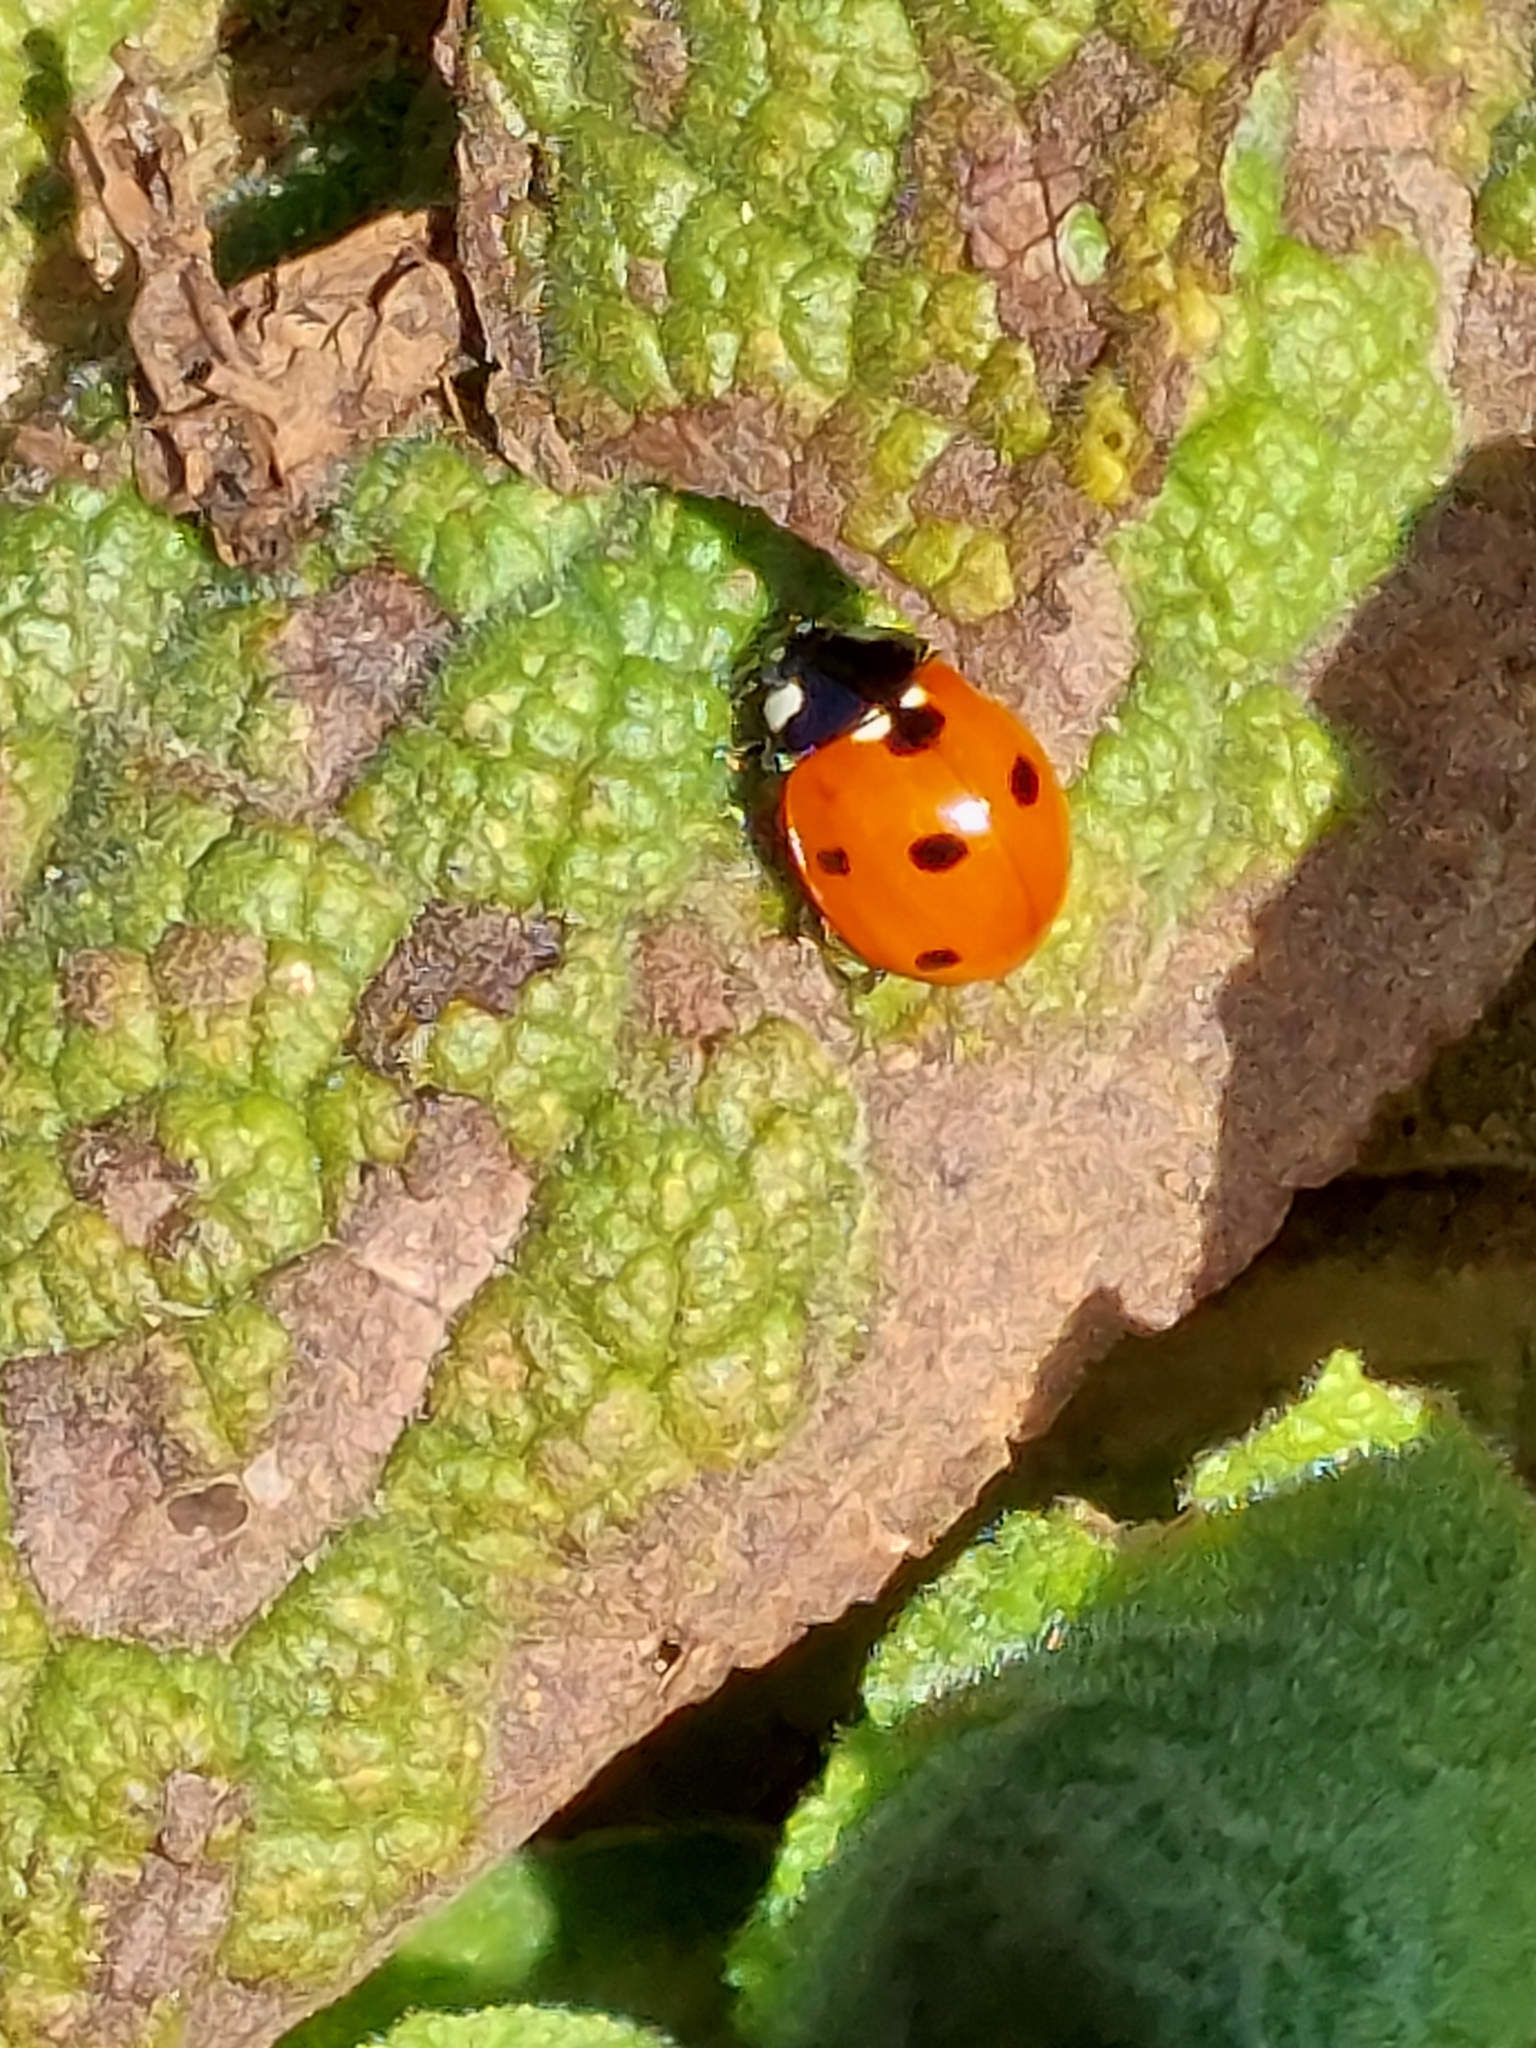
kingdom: Animalia
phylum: Arthropoda
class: Insecta
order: Coleoptera
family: Coccinellidae
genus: Coccinella
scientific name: Coccinella septempunctata
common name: Sevenspotted lady beetle
